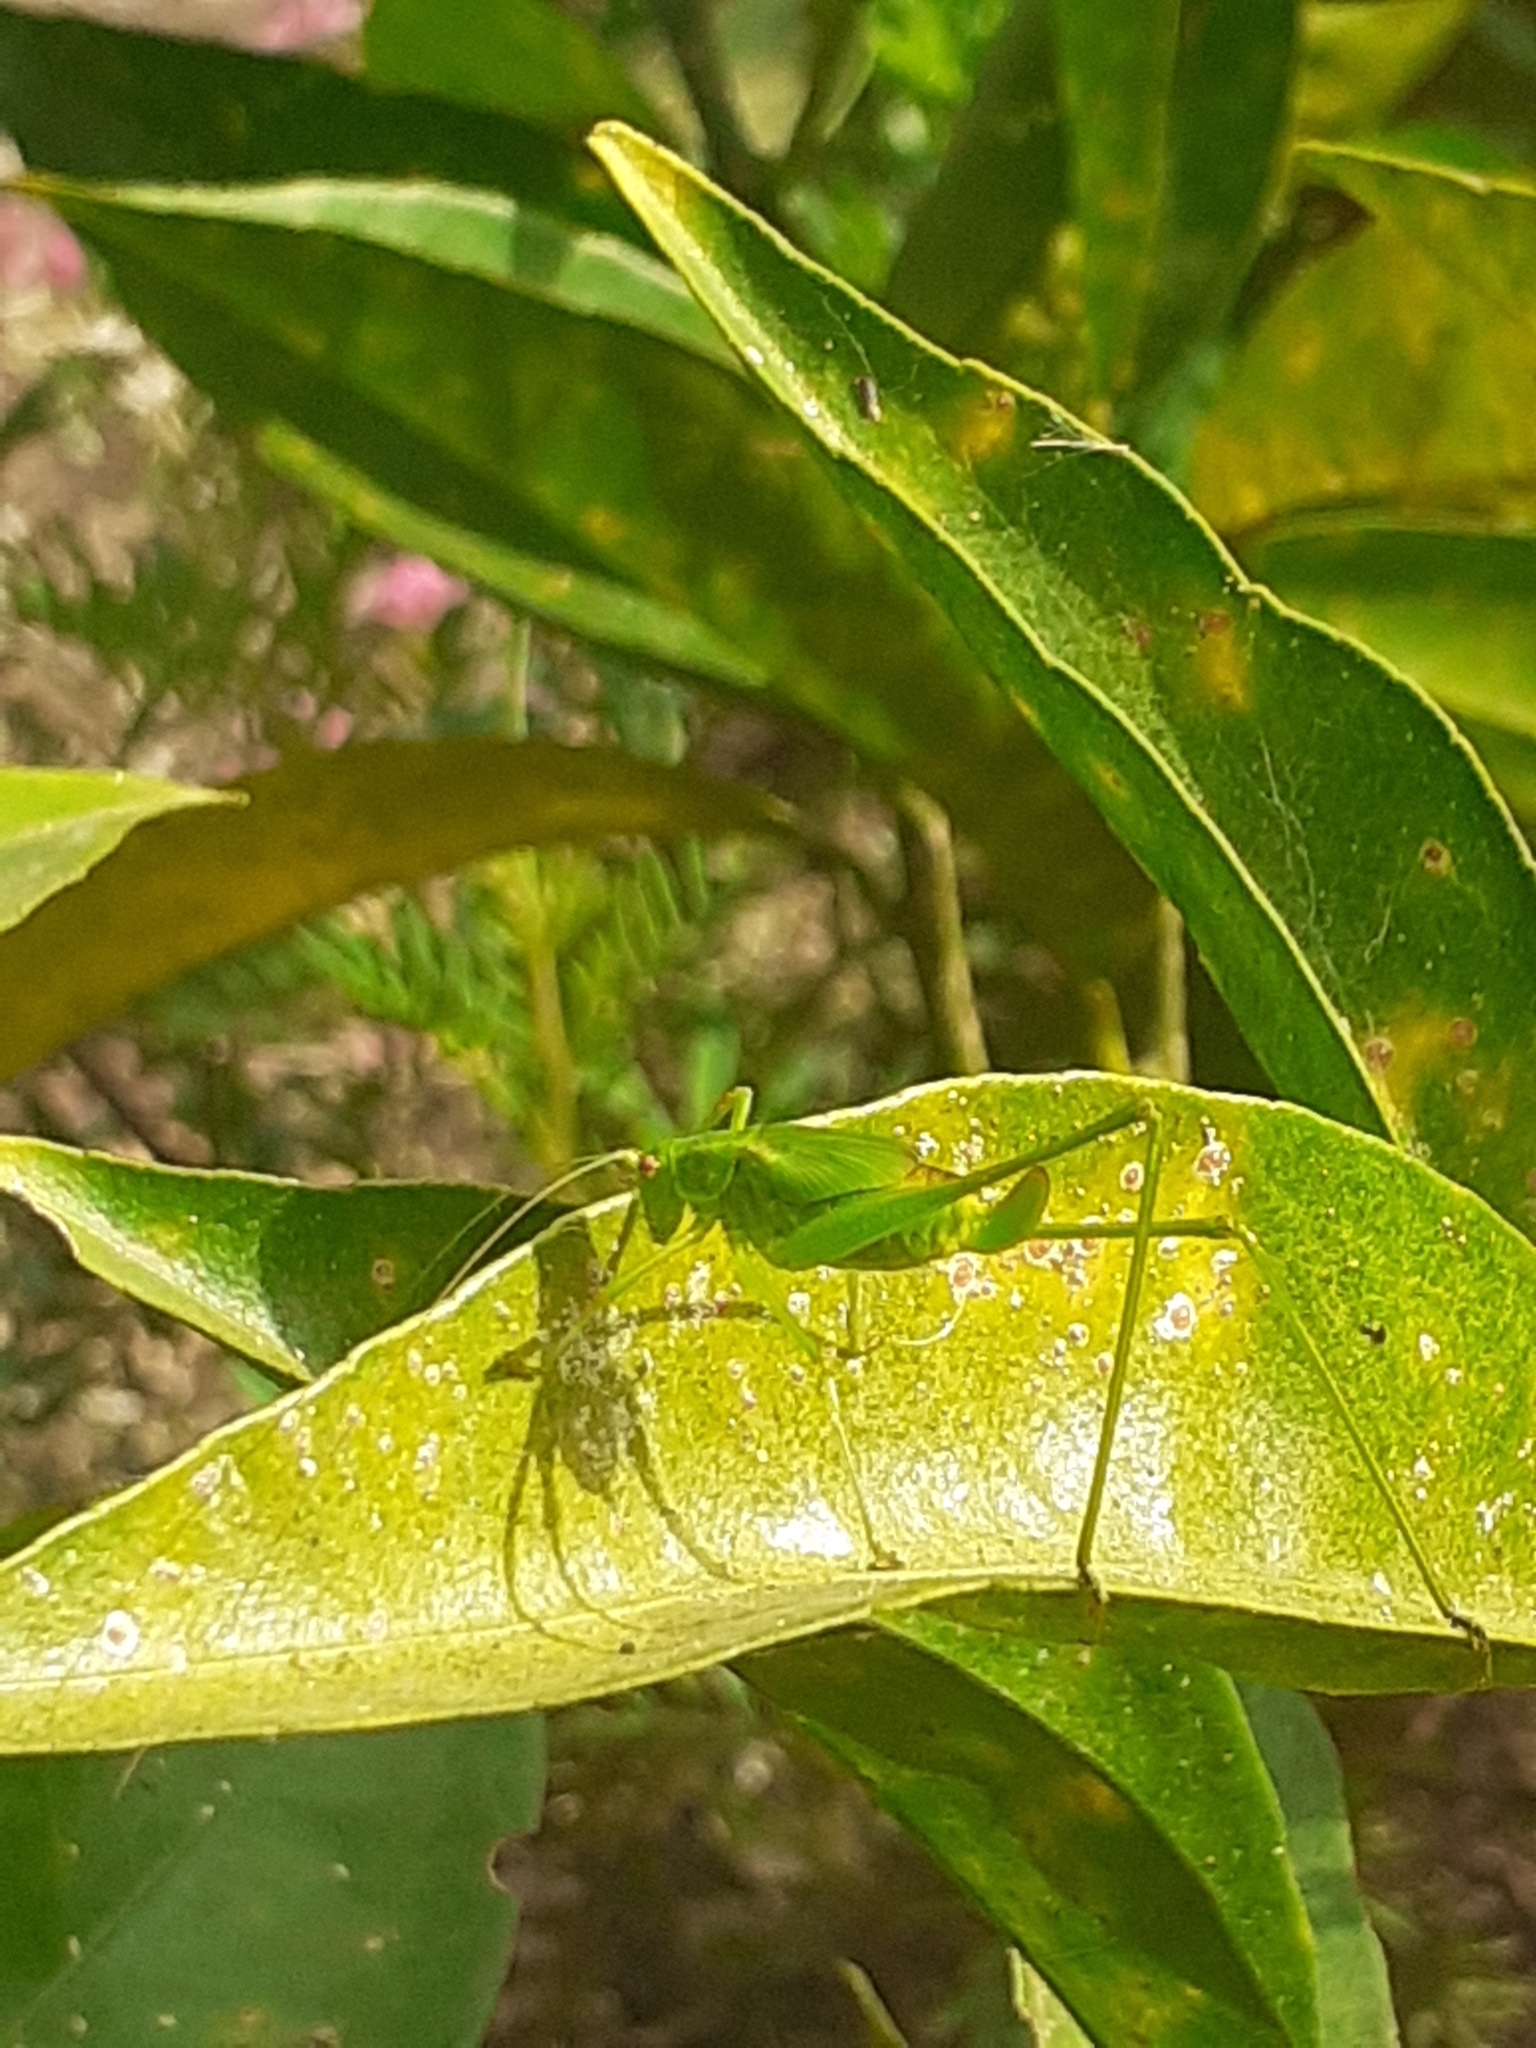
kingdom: Animalia
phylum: Arthropoda
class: Insecta
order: Orthoptera
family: Tettigoniidae
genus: Phaneroptera
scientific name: Phaneroptera sparsa
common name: Sickle-bearing leaf katydid
